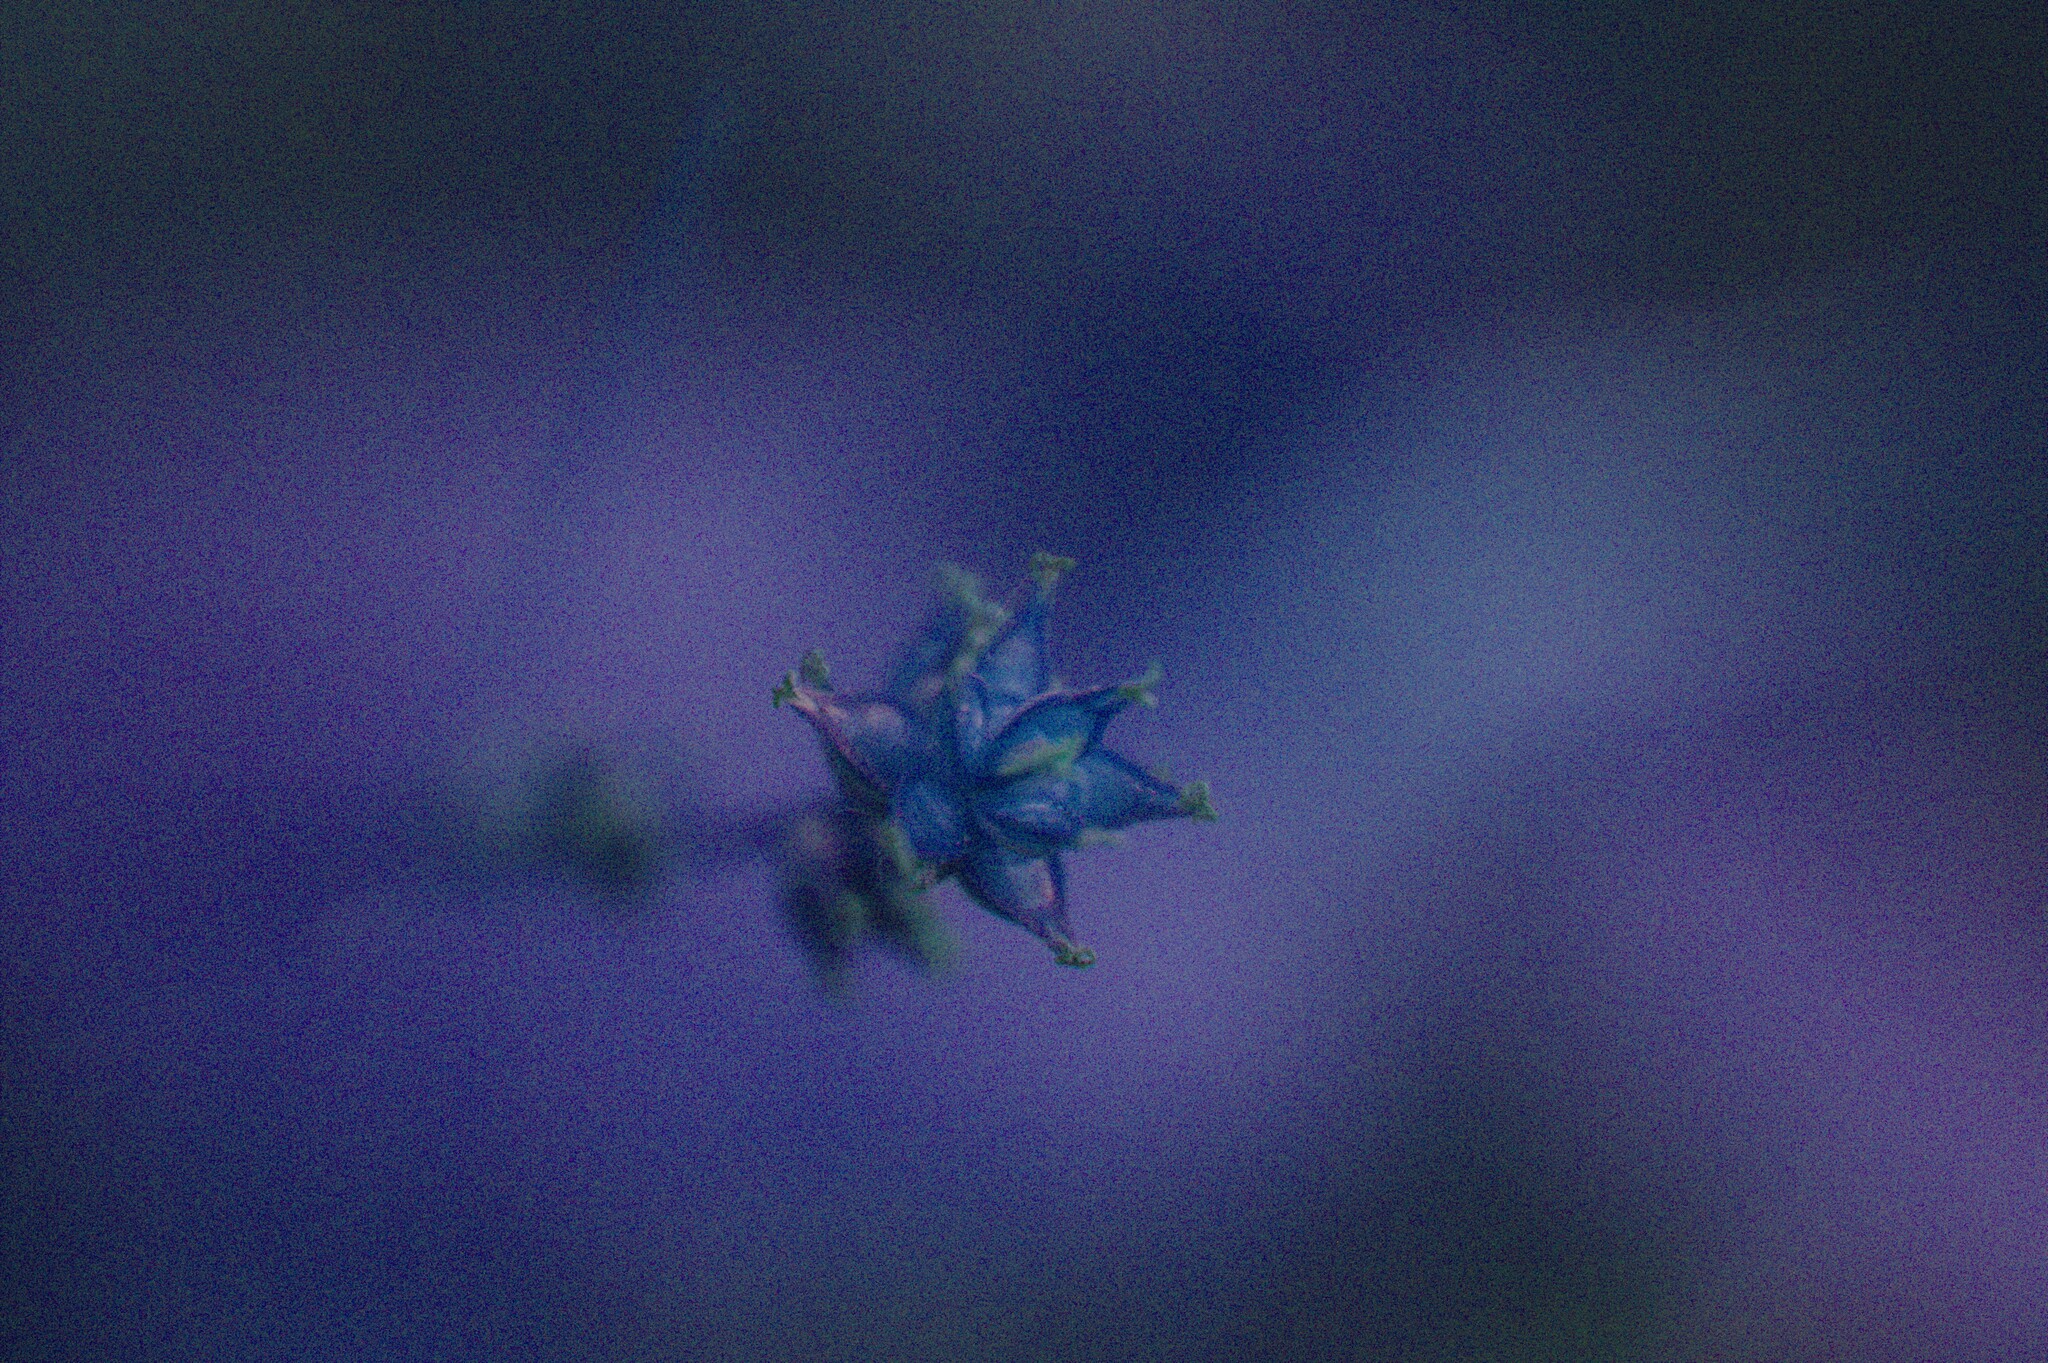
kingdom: Plantae
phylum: Tracheophyta
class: Liliopsida
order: Poales
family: Cyperaceae
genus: Carex
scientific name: Carex rosea
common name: Curly-styled wood sedge
